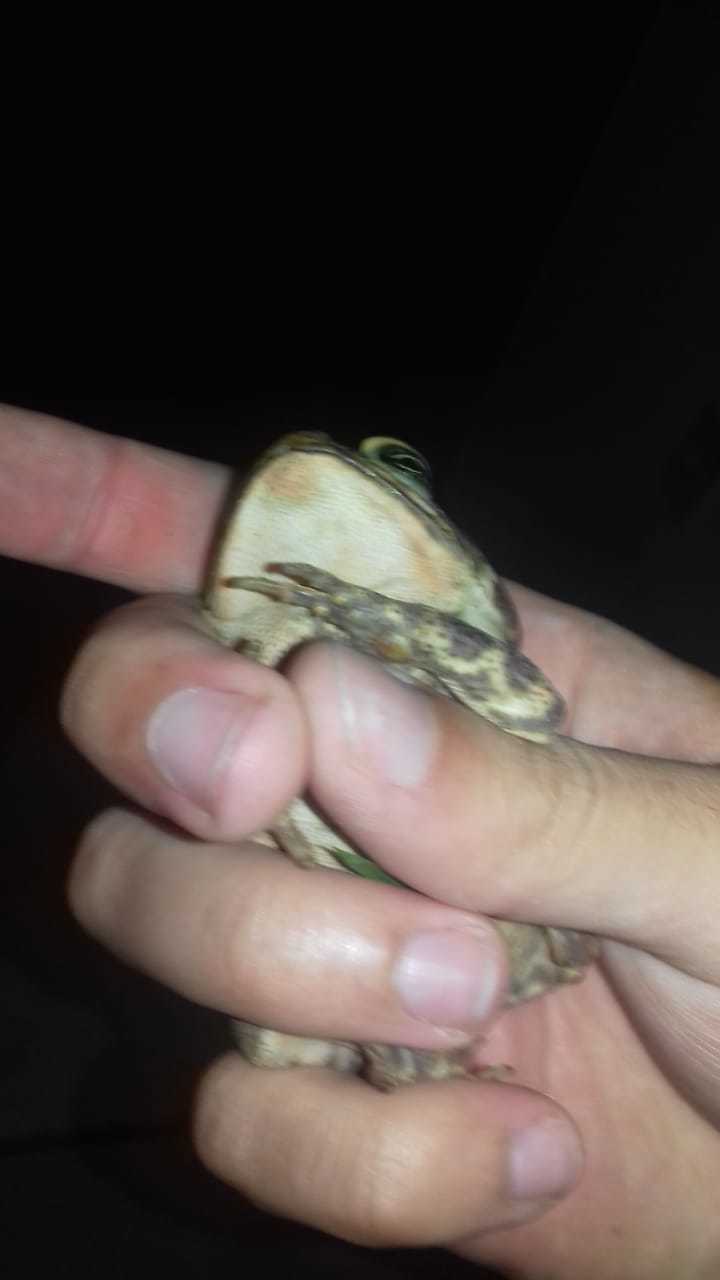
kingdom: Animalia
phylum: Chordata
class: Amphibia
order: Anura
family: Bufonidae
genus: Rhinella
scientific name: Rhinella icterica
